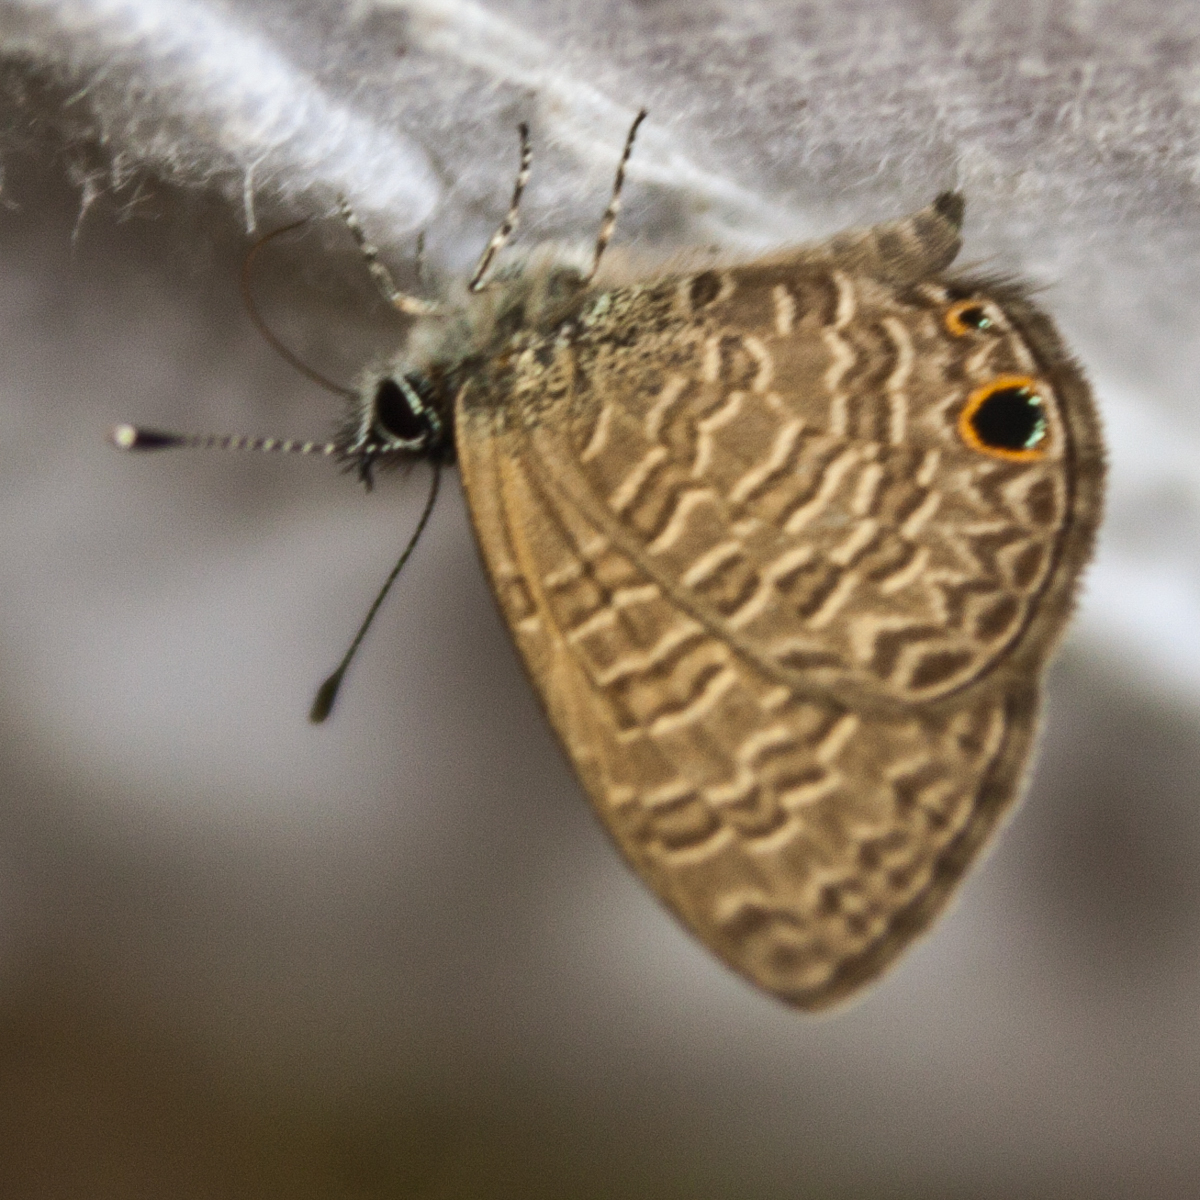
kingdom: Animalia
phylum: Arthropoda
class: Insecta
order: Lepidoptera
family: Lycaenidae
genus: Prosotas
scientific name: Prosotas dubiosa
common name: Tailless lineblue
